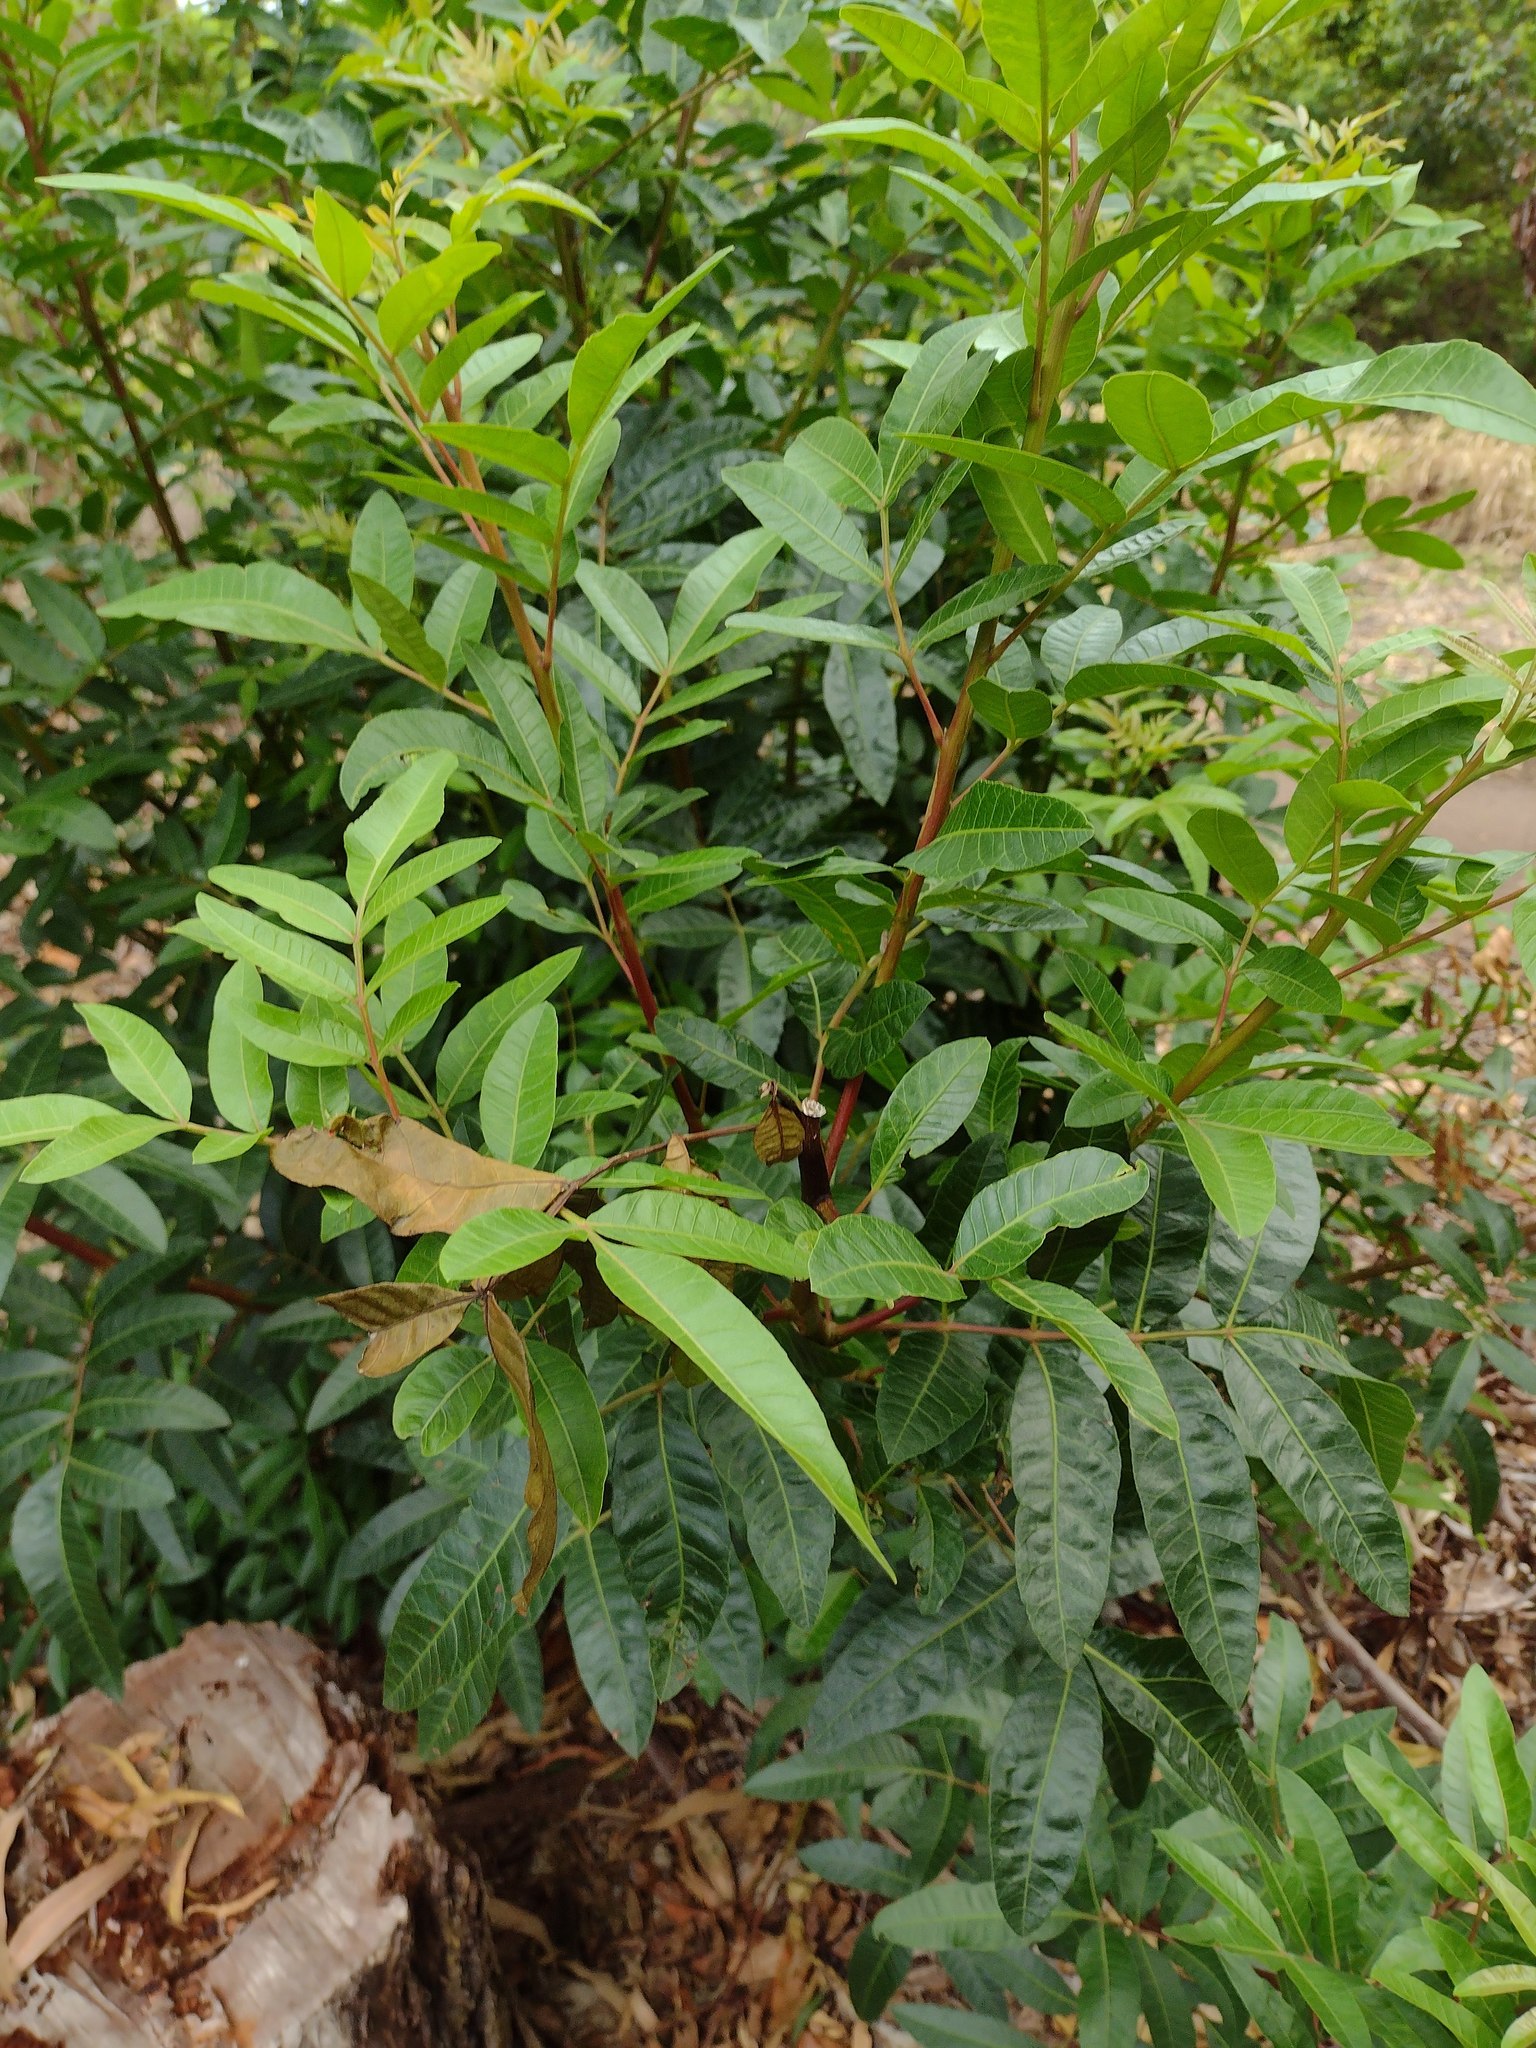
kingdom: Plantae
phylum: Tracheophyta
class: Magnoliopsida
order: Sapindales
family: Anacardiaceae
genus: Schinus
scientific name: Schinus terebinthifolia
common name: Brazilian peppertree
